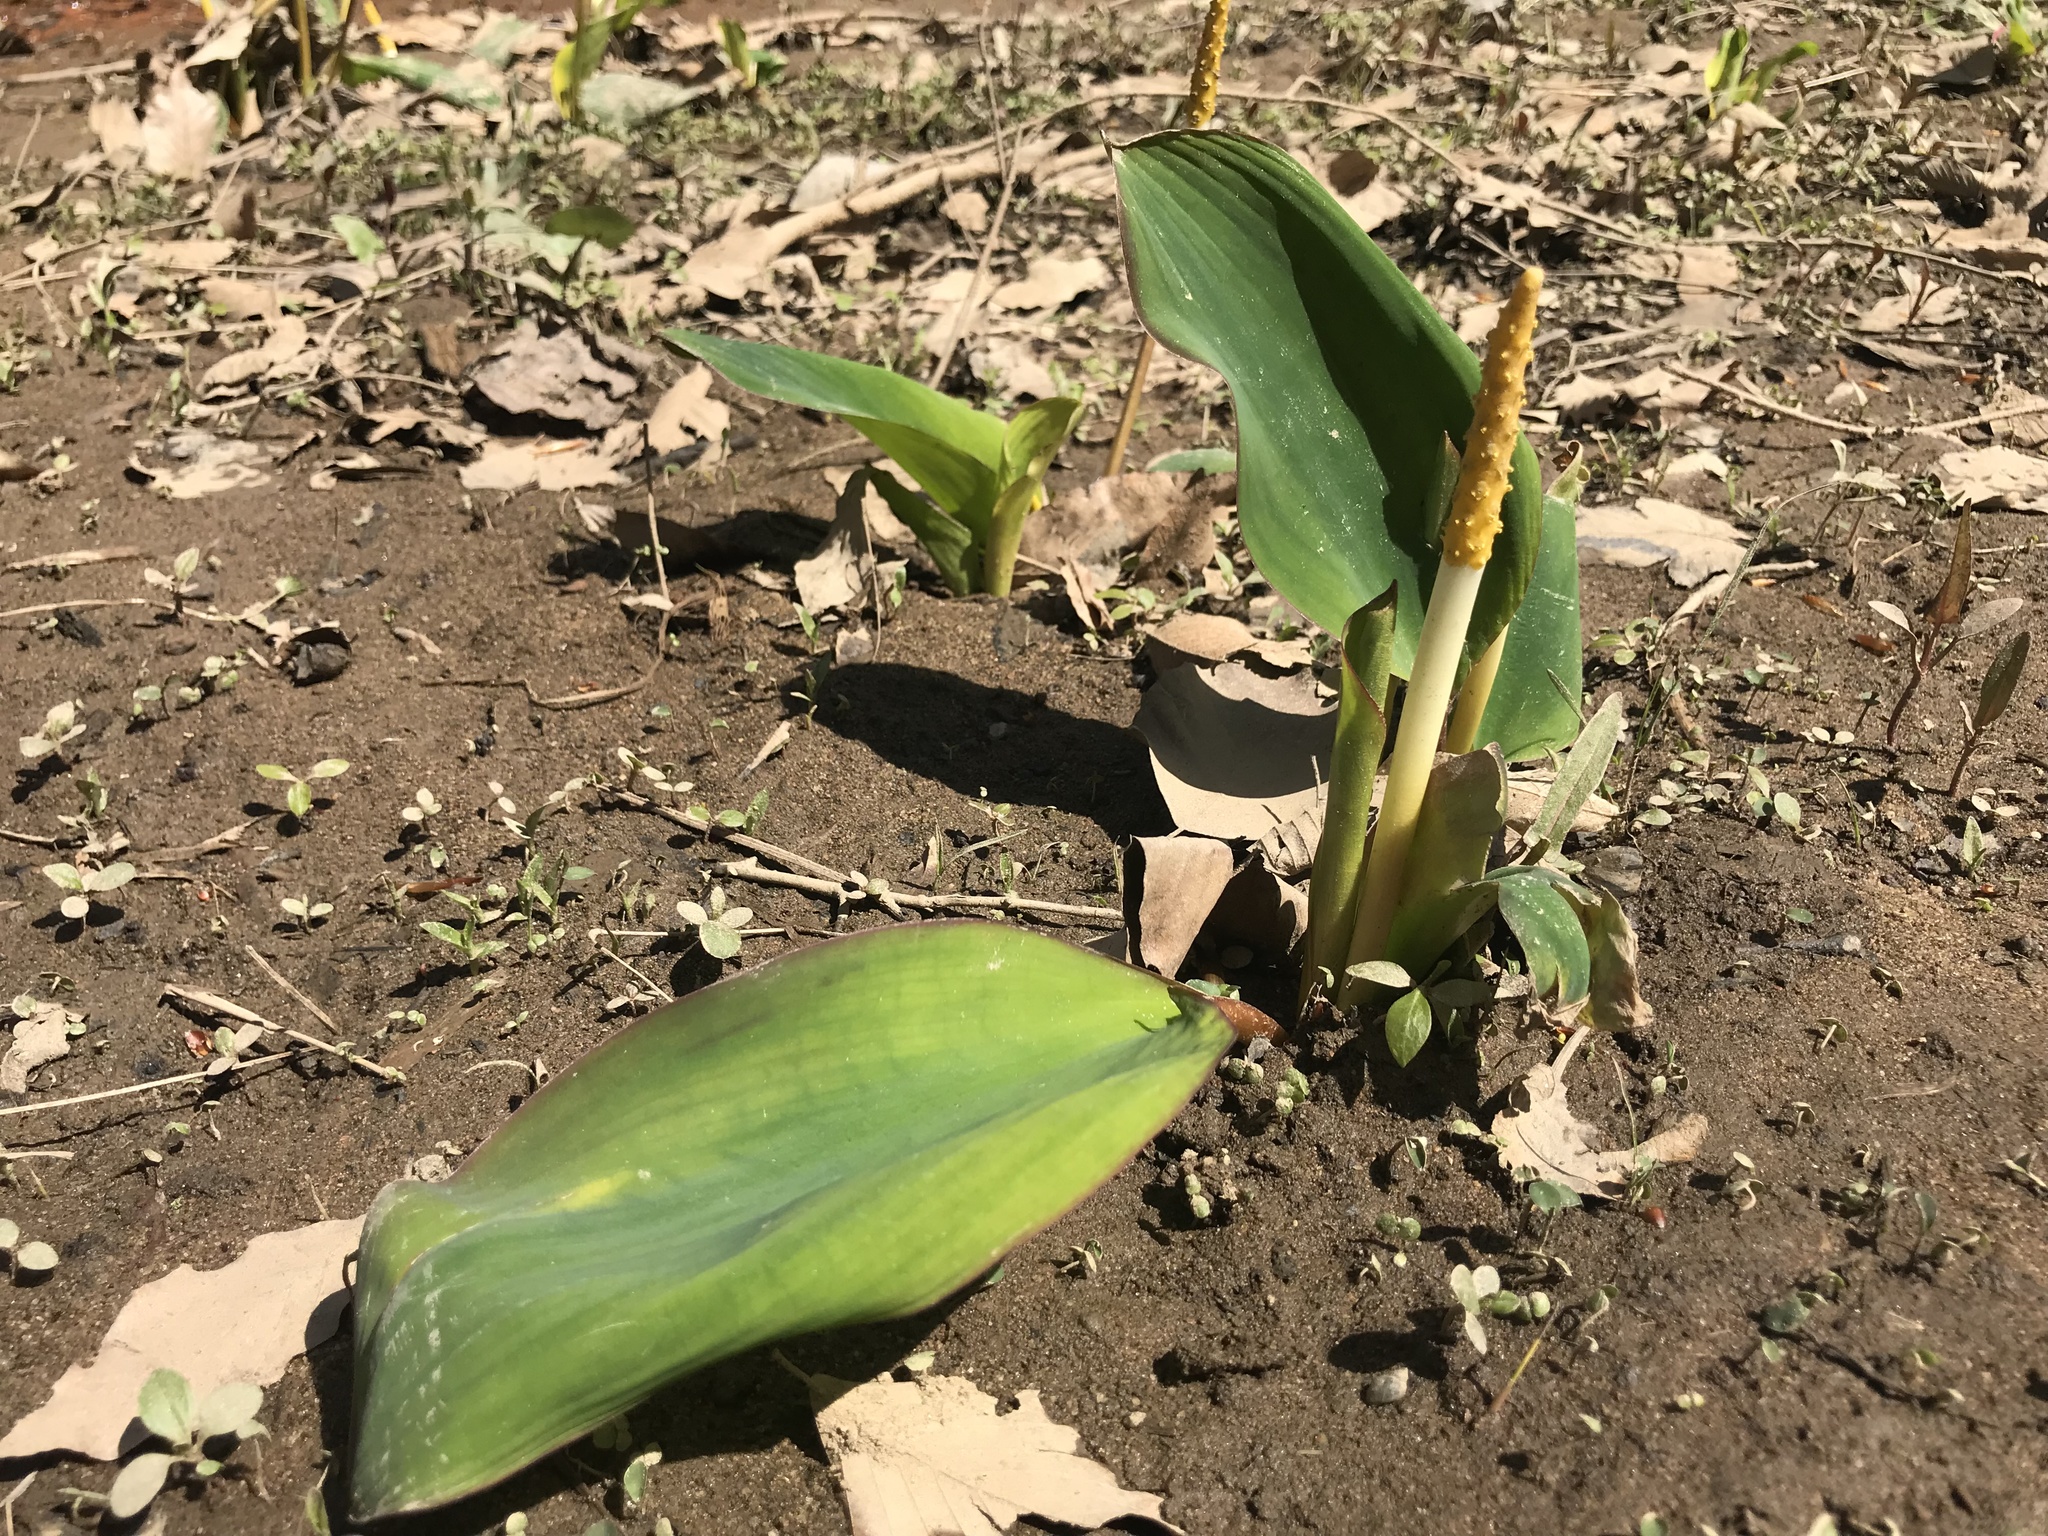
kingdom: Plantae
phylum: Tracheophyta
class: Liliopsida
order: Alismatales
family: Araceae
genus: Orontium
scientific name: Orontium aquaticum
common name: Golden-club
